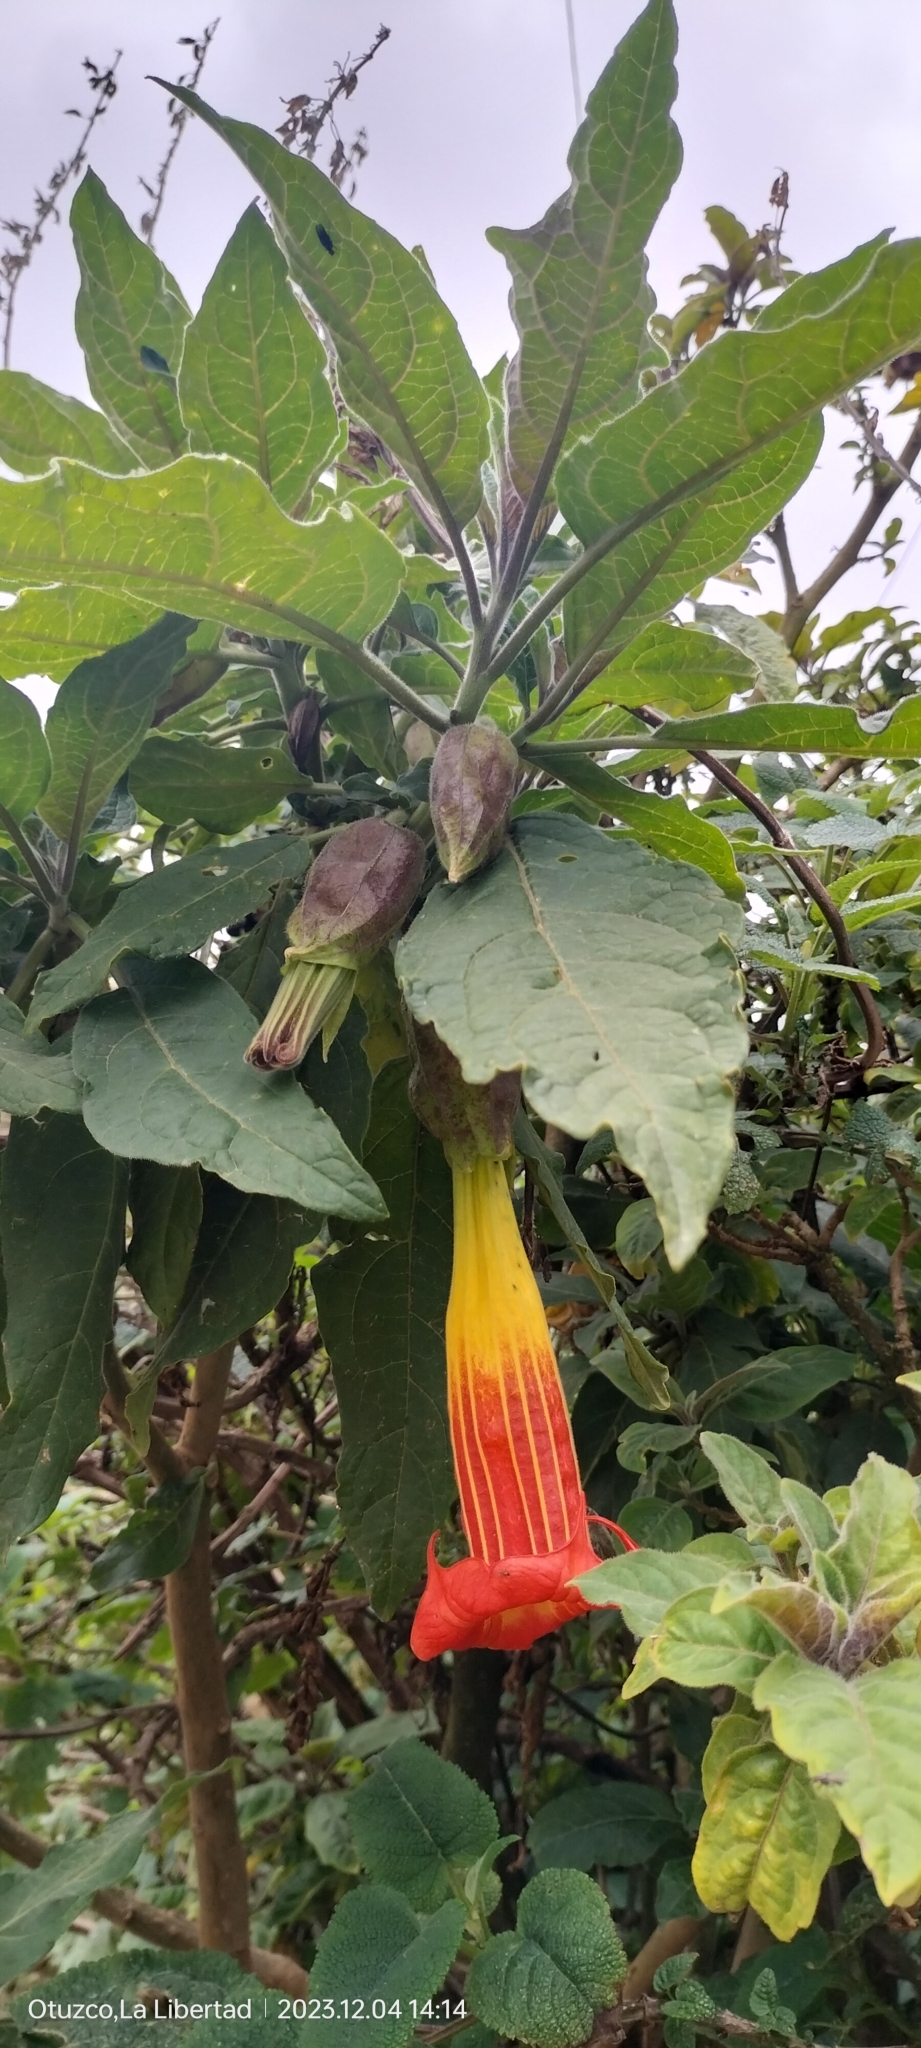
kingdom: Plantae
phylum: Tracheophyta
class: Magnoliopsida
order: Solanales
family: Solanaceae
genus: Brugmansia
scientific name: Brugmansia sanguinea
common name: Red floripontio
